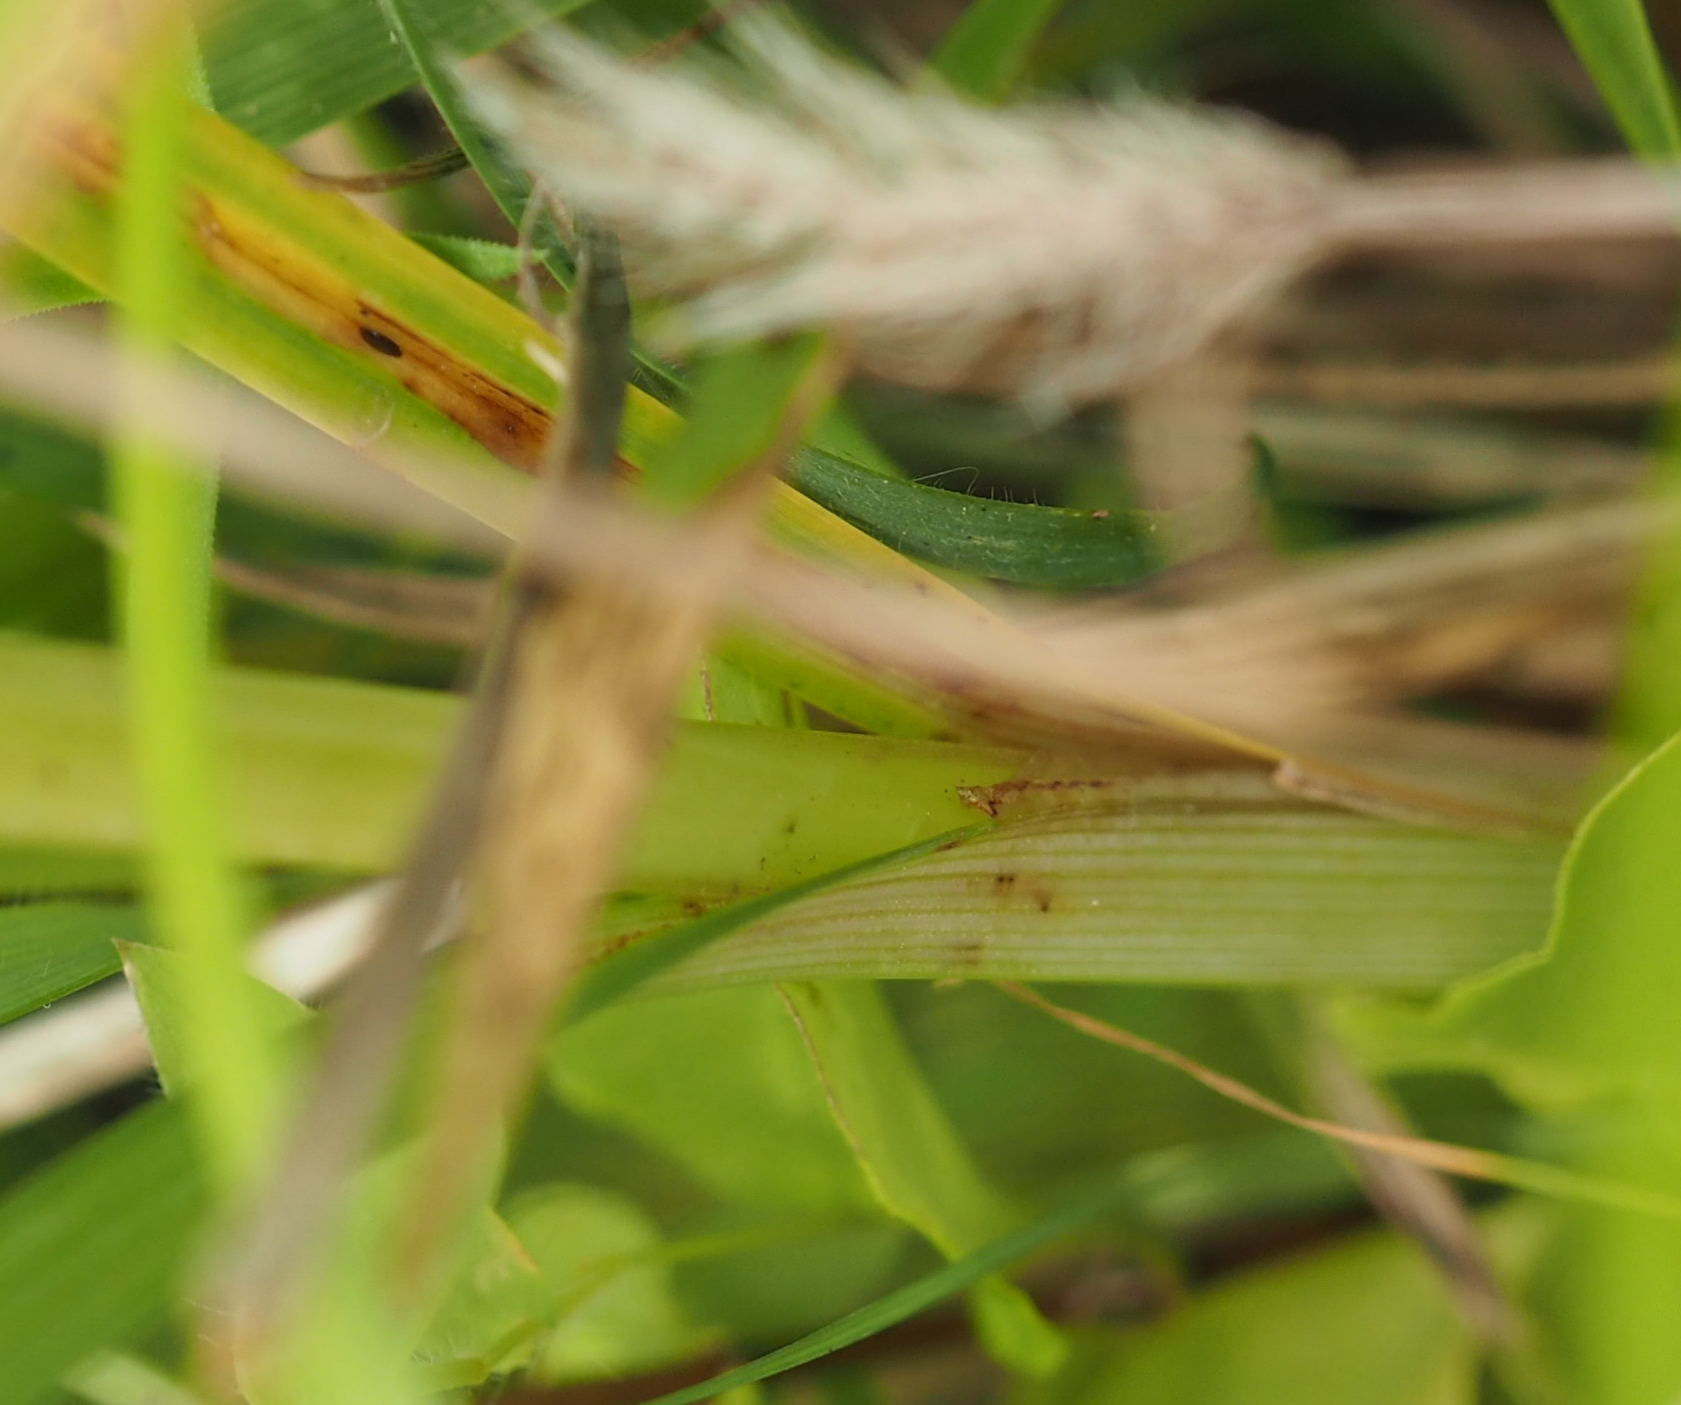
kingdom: Plantae
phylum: Tracheophyta
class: Liliopsida
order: Poales
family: Cyperaceae
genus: Cyperus
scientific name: Cyperus echinatus
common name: Teasel sedge
